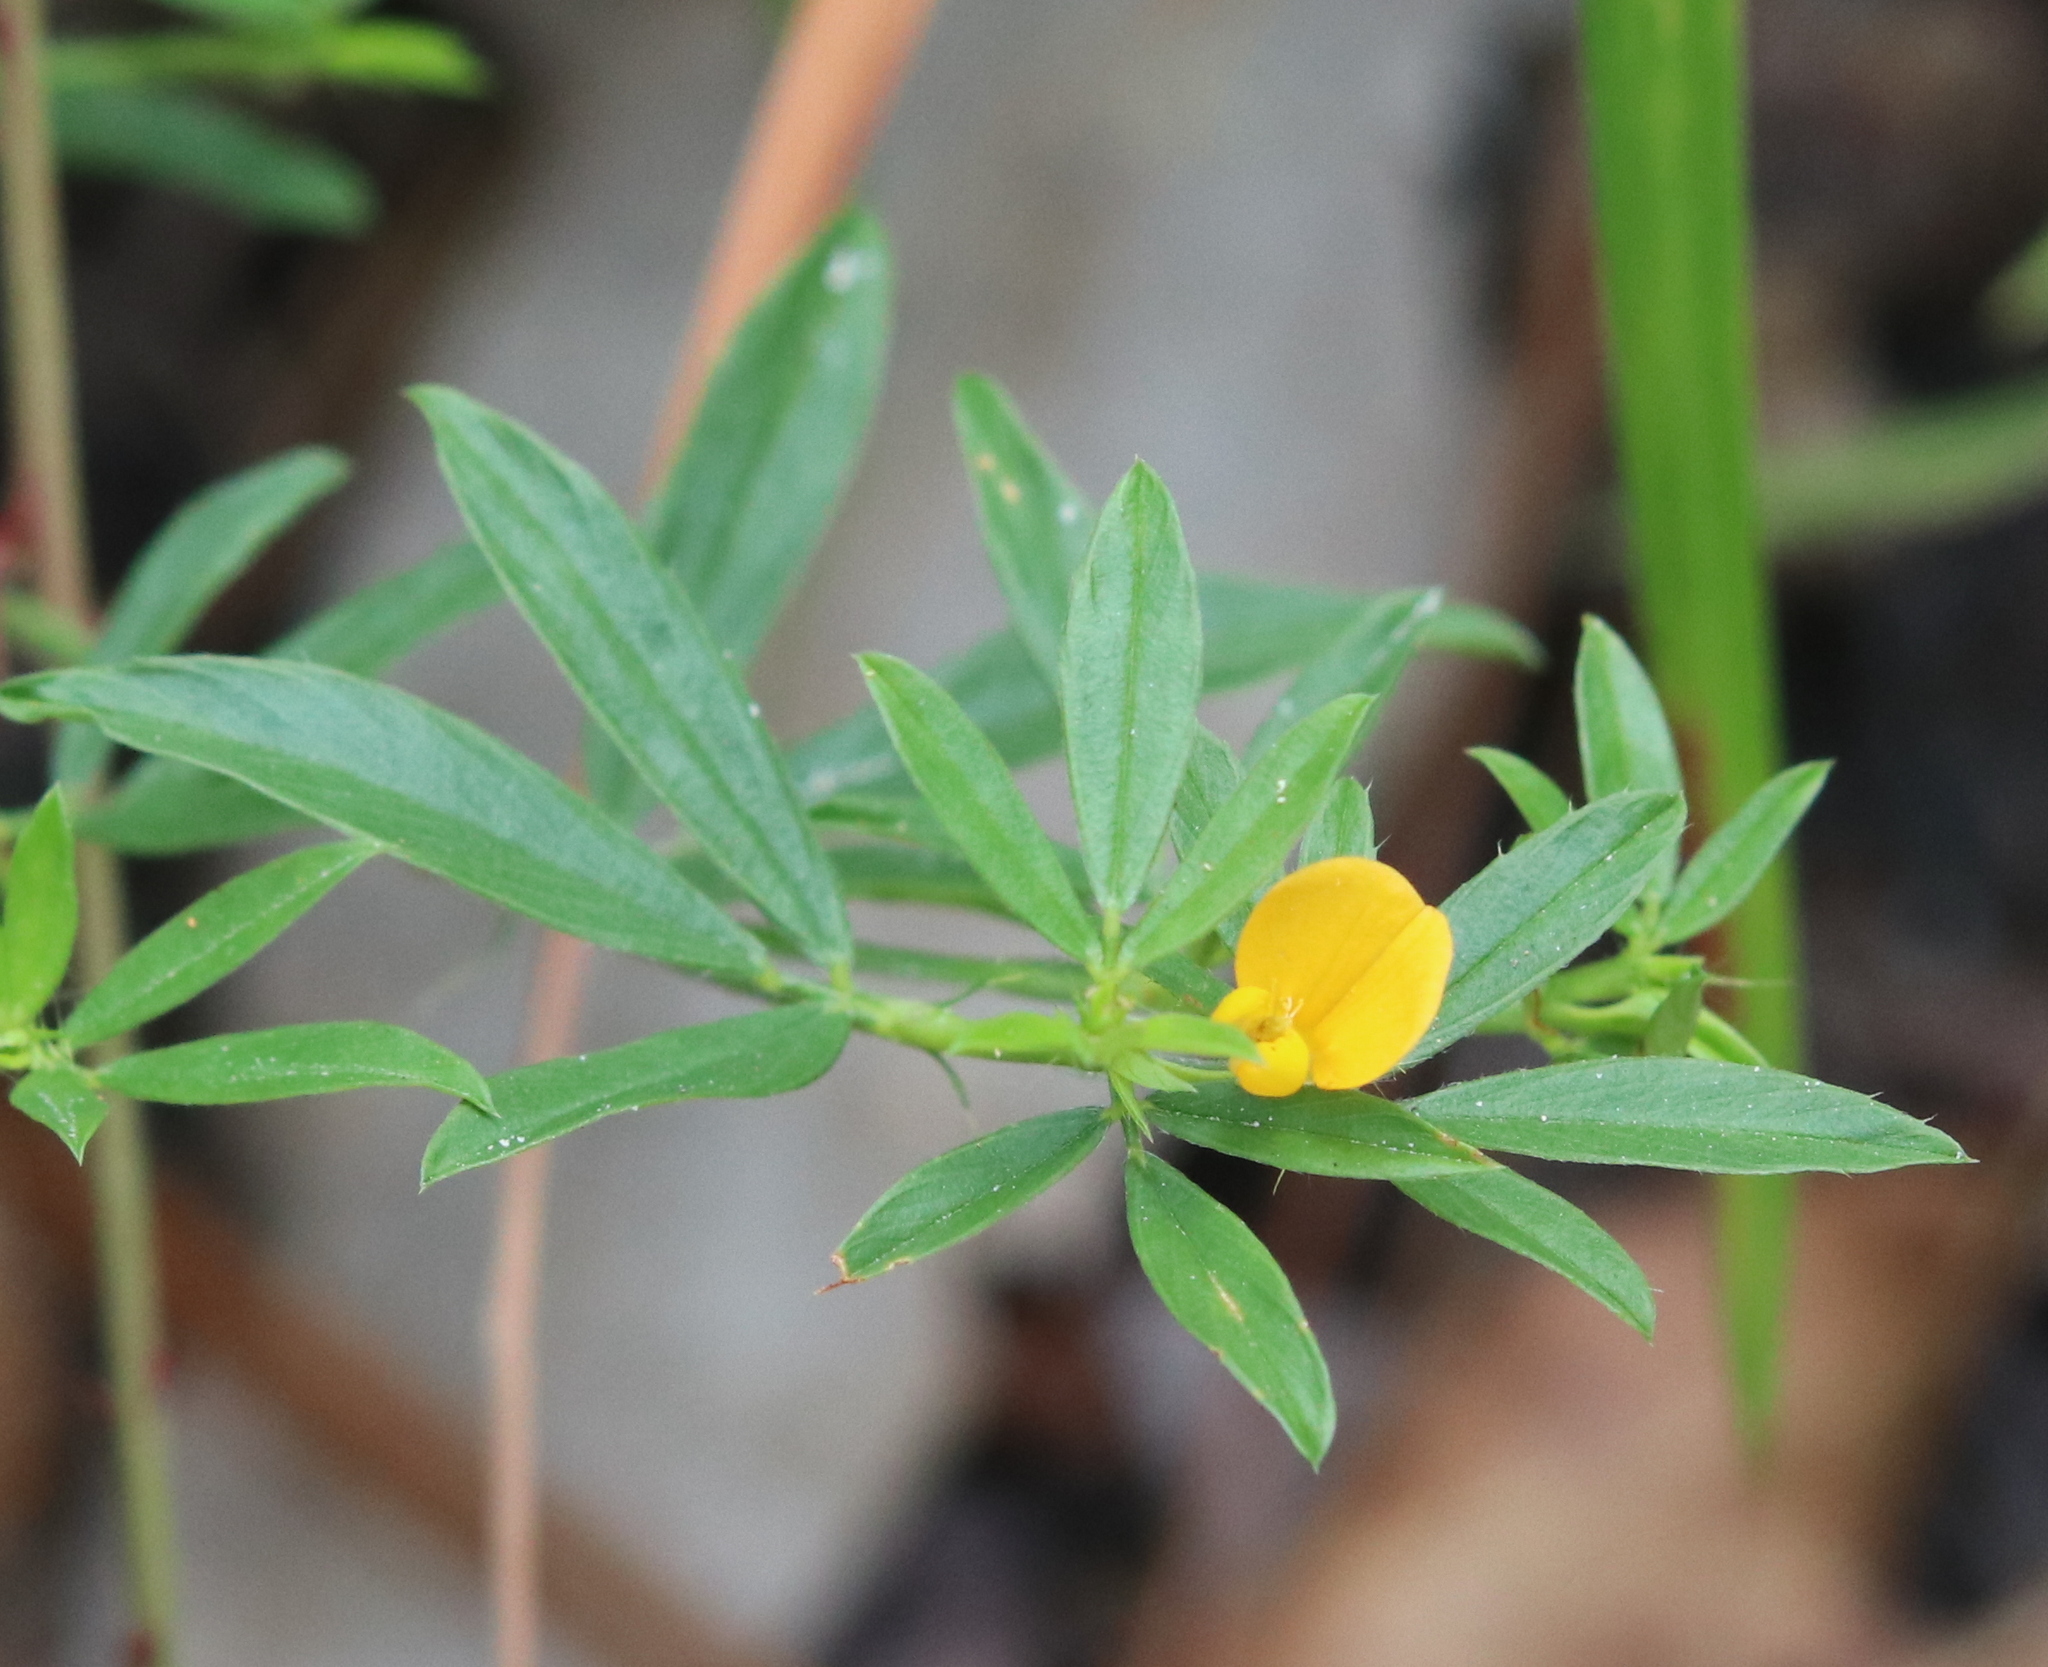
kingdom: Plantae
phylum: Tracheophyta
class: Magnoliopsida
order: Fabales
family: Fabaceae
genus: Stylosanthes
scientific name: Stylosanthes biflora
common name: Two-flower pencil-flower
